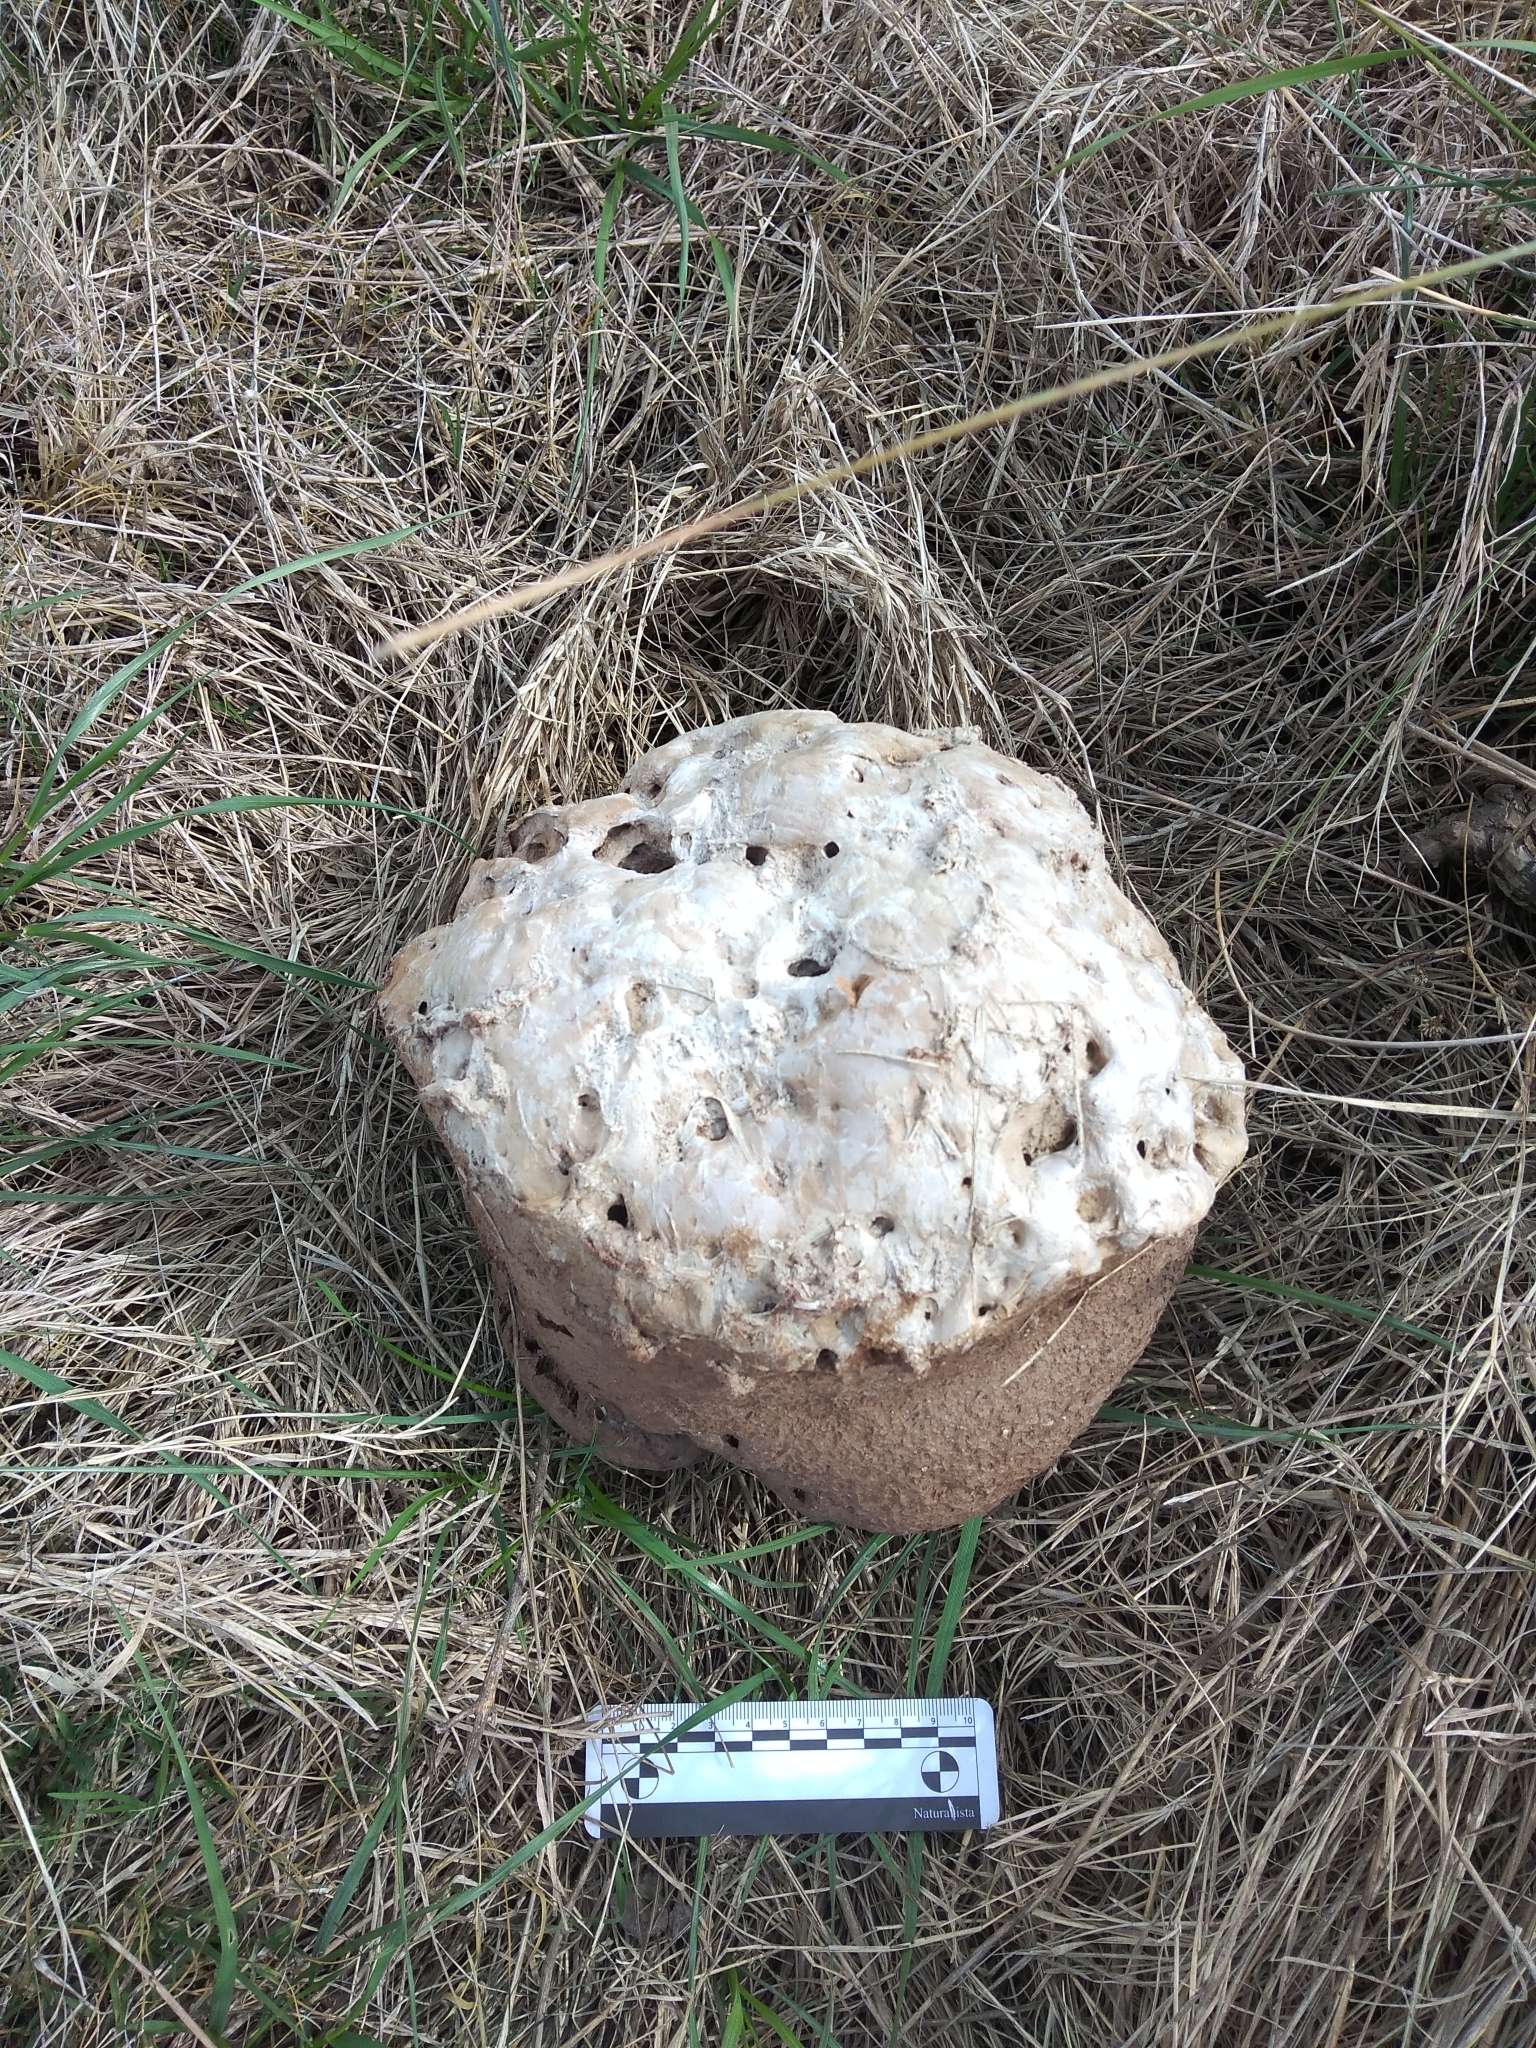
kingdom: Fungi
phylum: Basidiomycota
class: Agaricomycetes
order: Agaricales
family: Lycoperdaceae
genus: Calvatia
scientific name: Calvatia cyathiformis
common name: Purple-spored puffball
